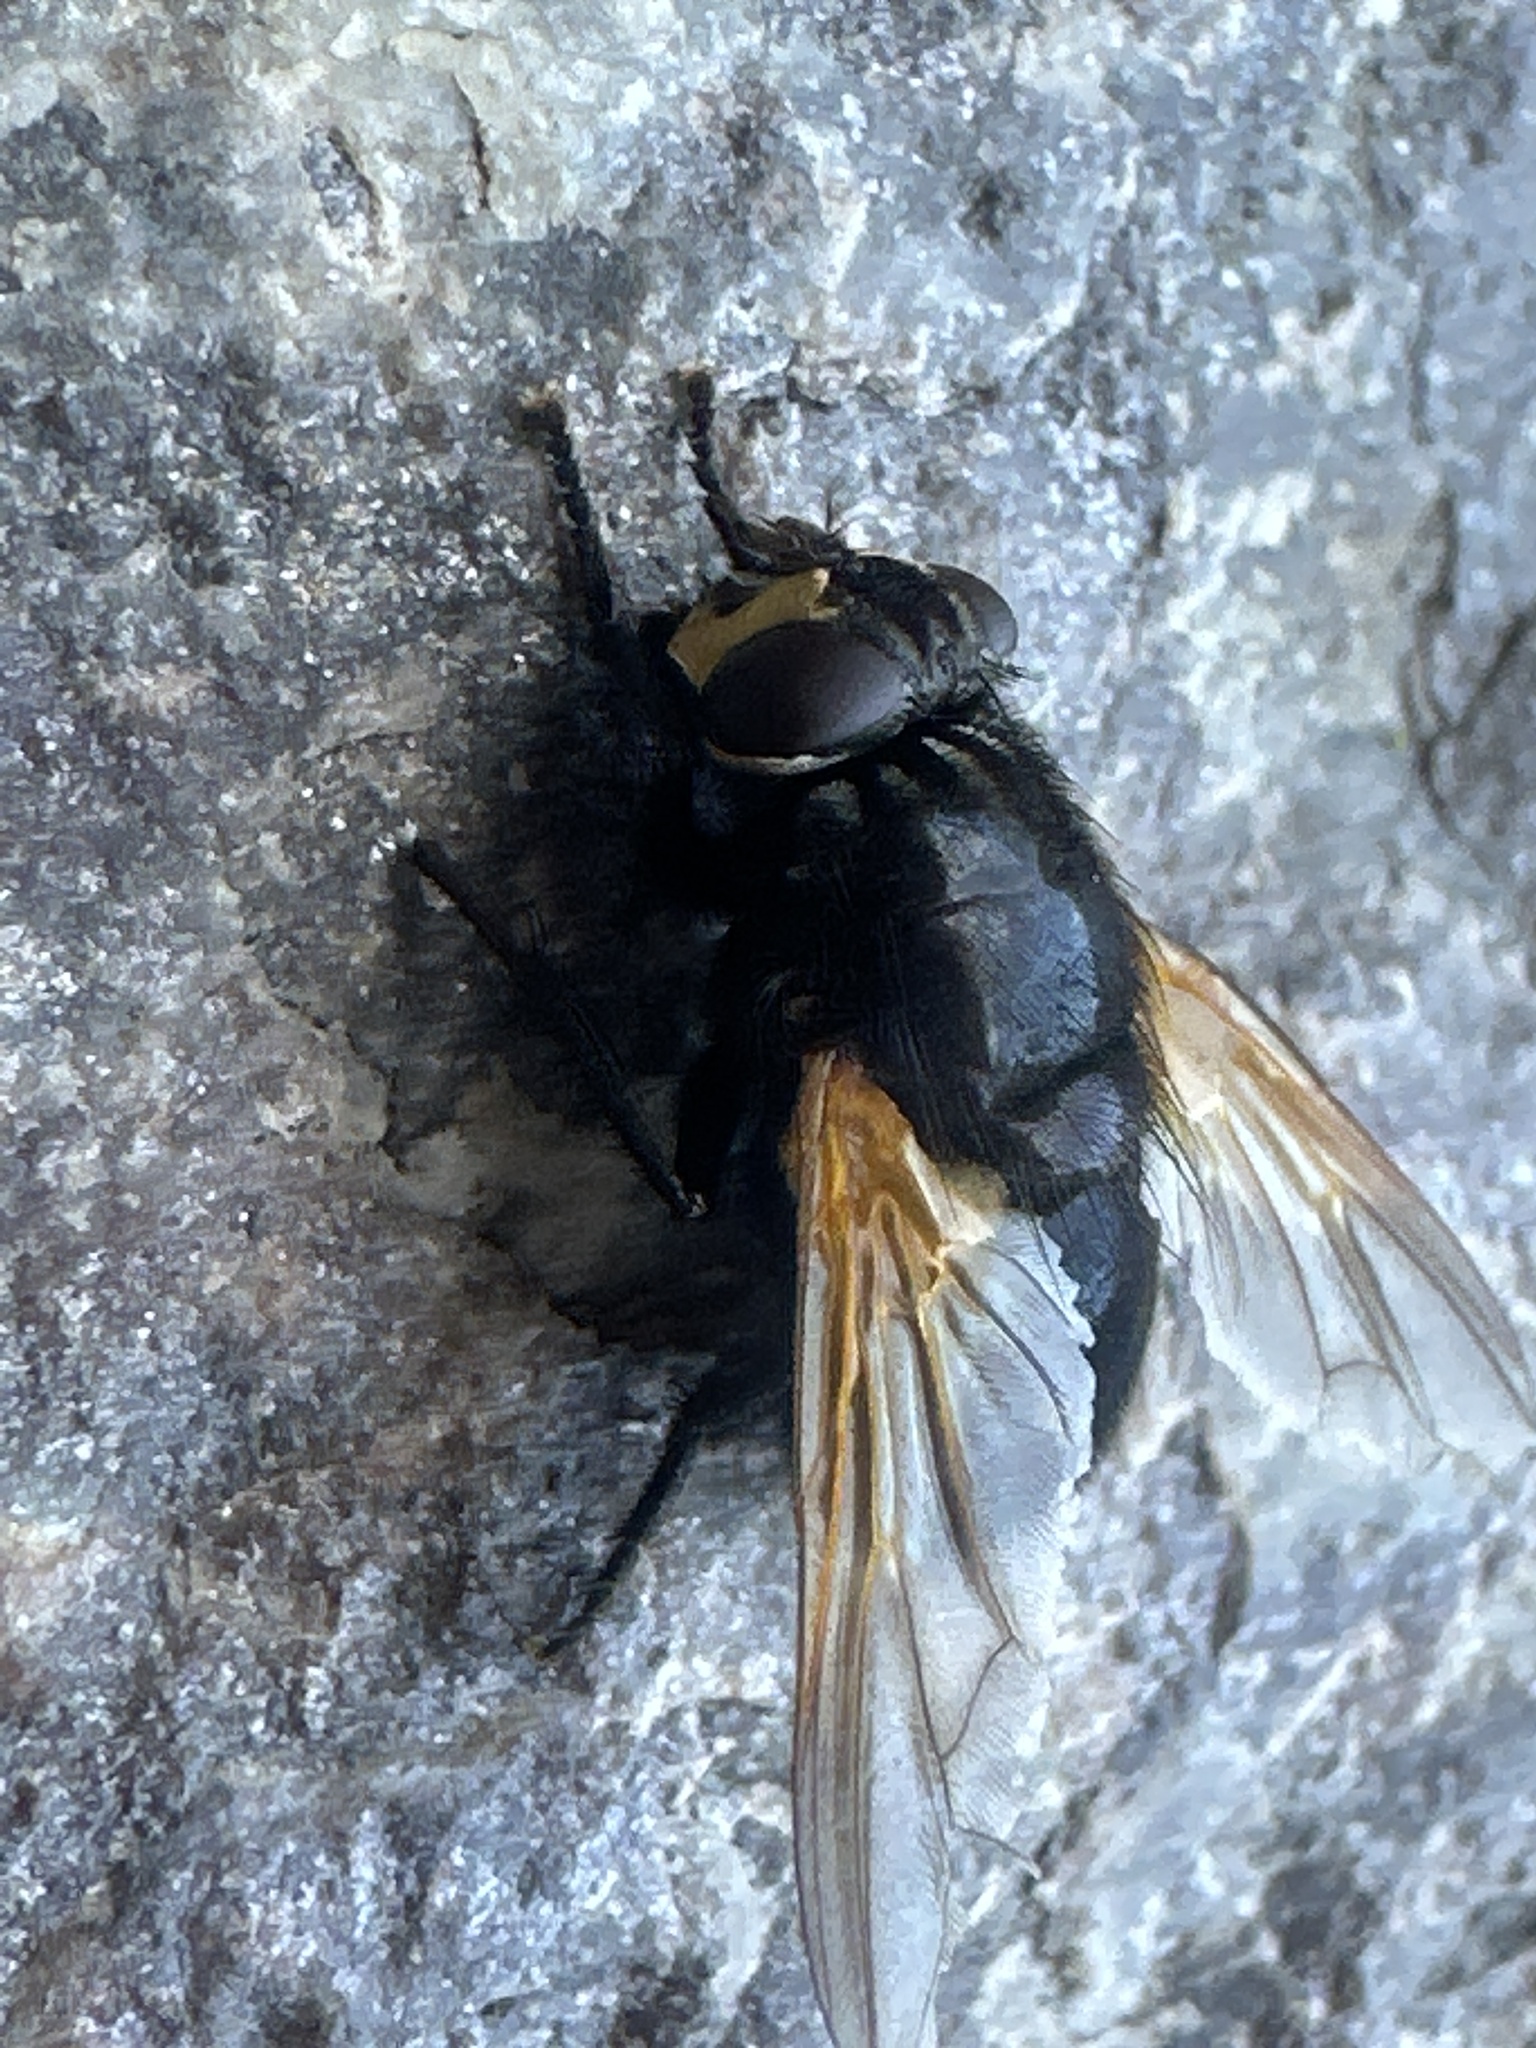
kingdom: Animalia
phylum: Arthropoda
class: Insecta
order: Diptera
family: Muscidae
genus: Mesembrina
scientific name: Mesembrina meridiana
